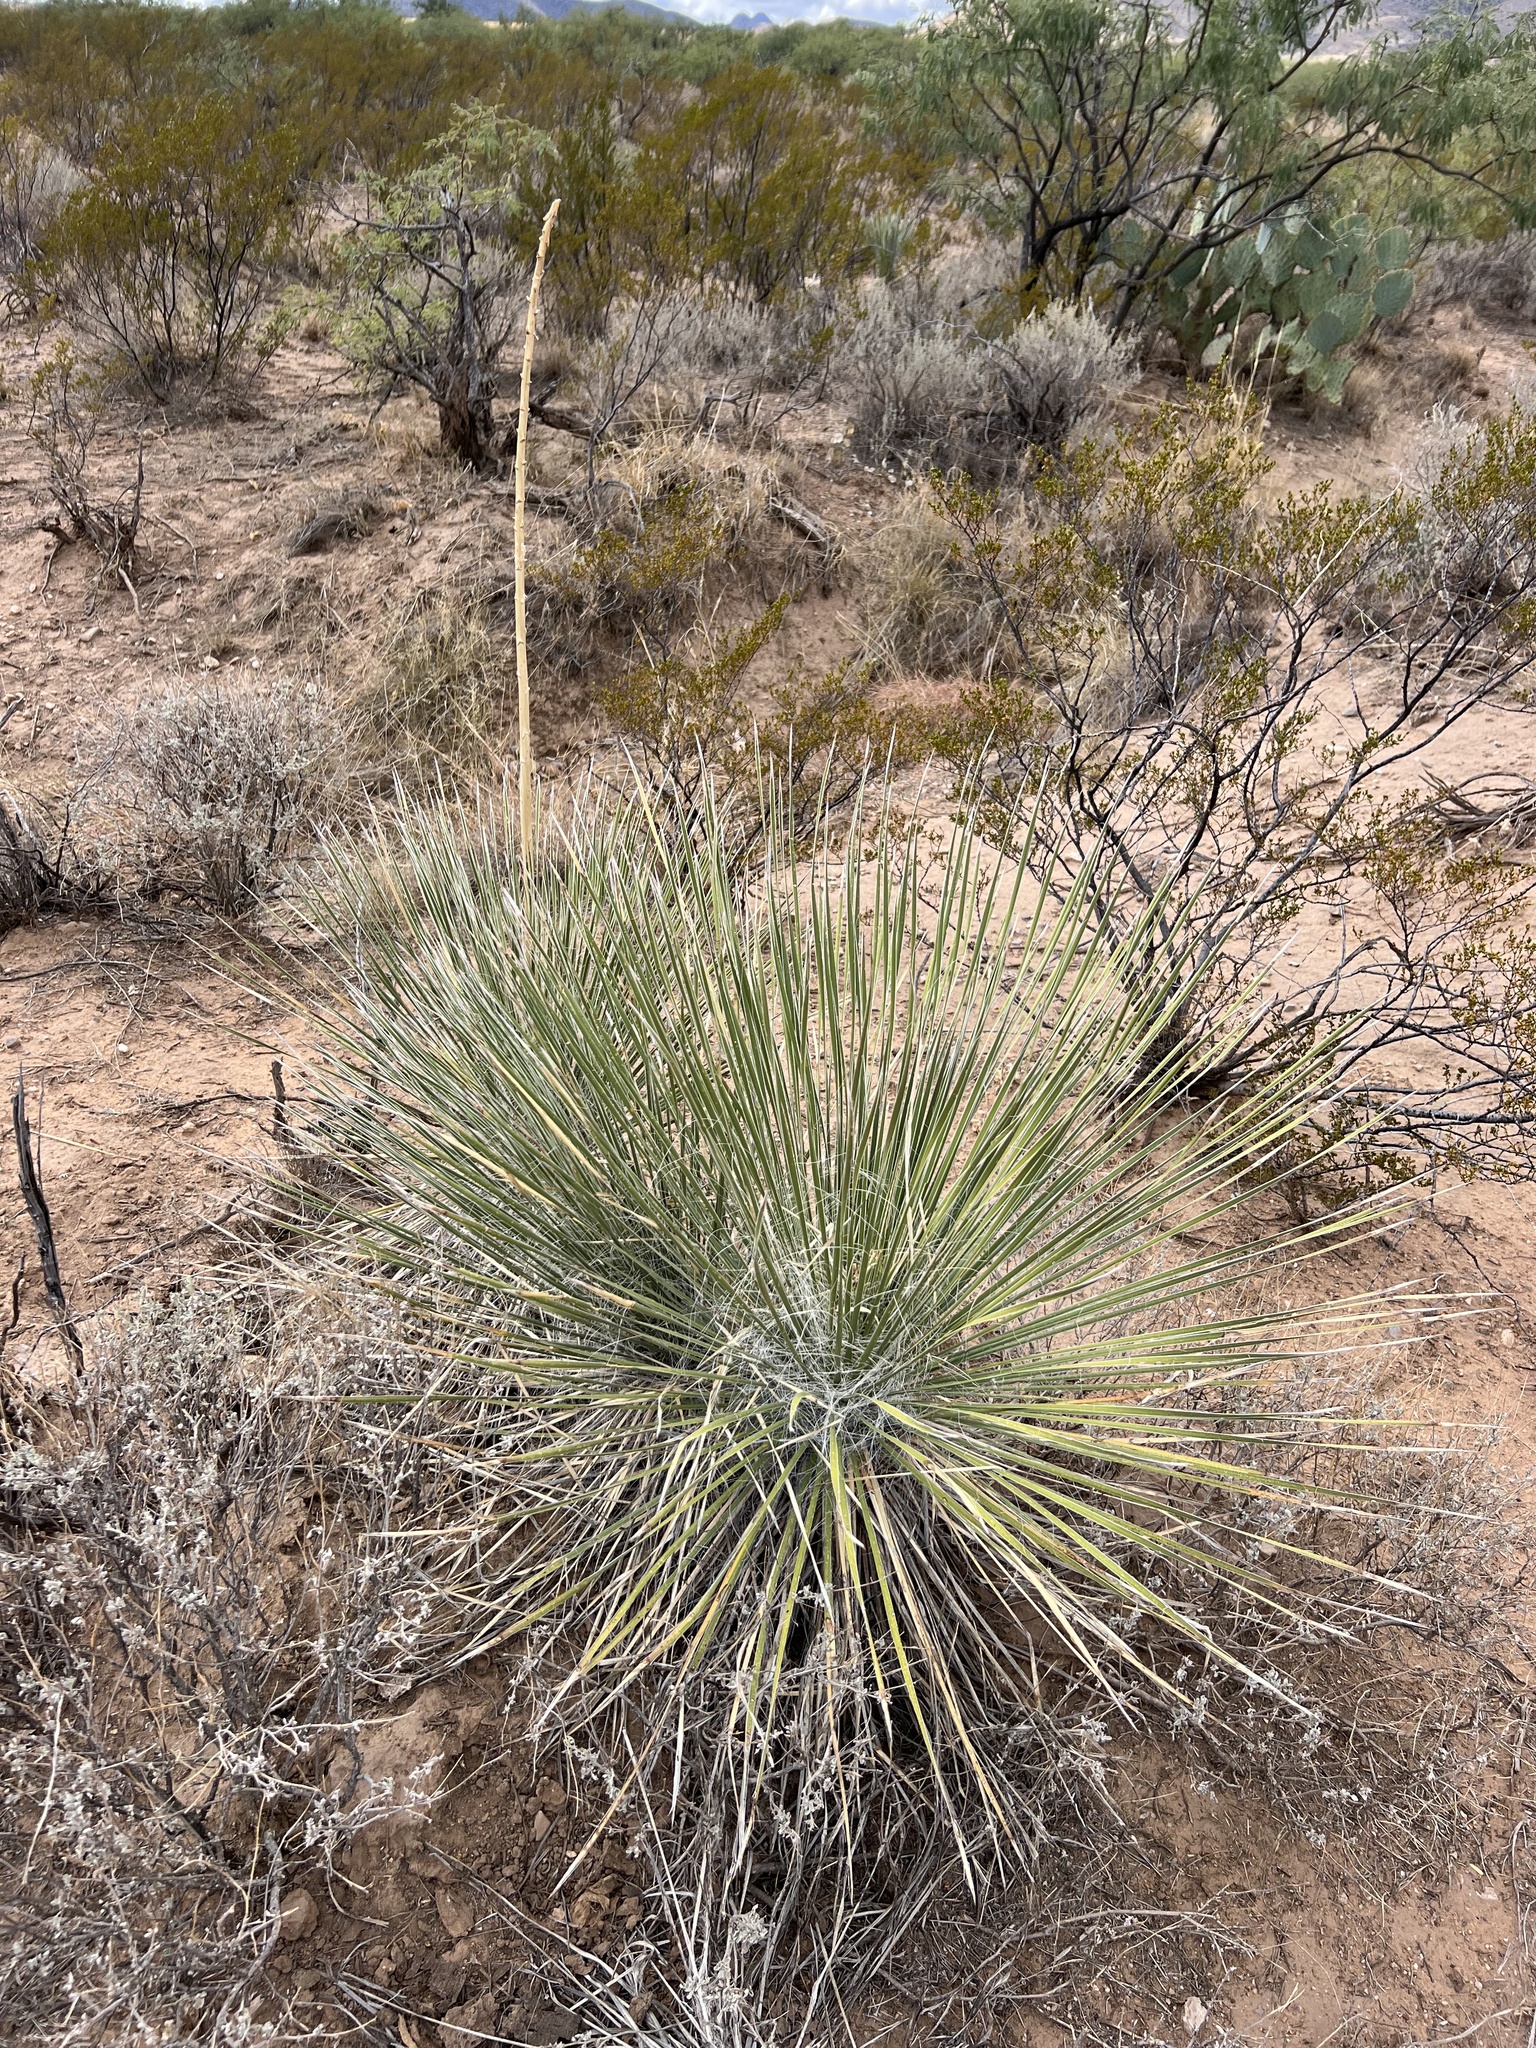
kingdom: Plantae
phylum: Tracheophyta
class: Liliopsida
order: Asparagales
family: Asparagaceae
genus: Yucca
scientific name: Yucca elata
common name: Palmella
